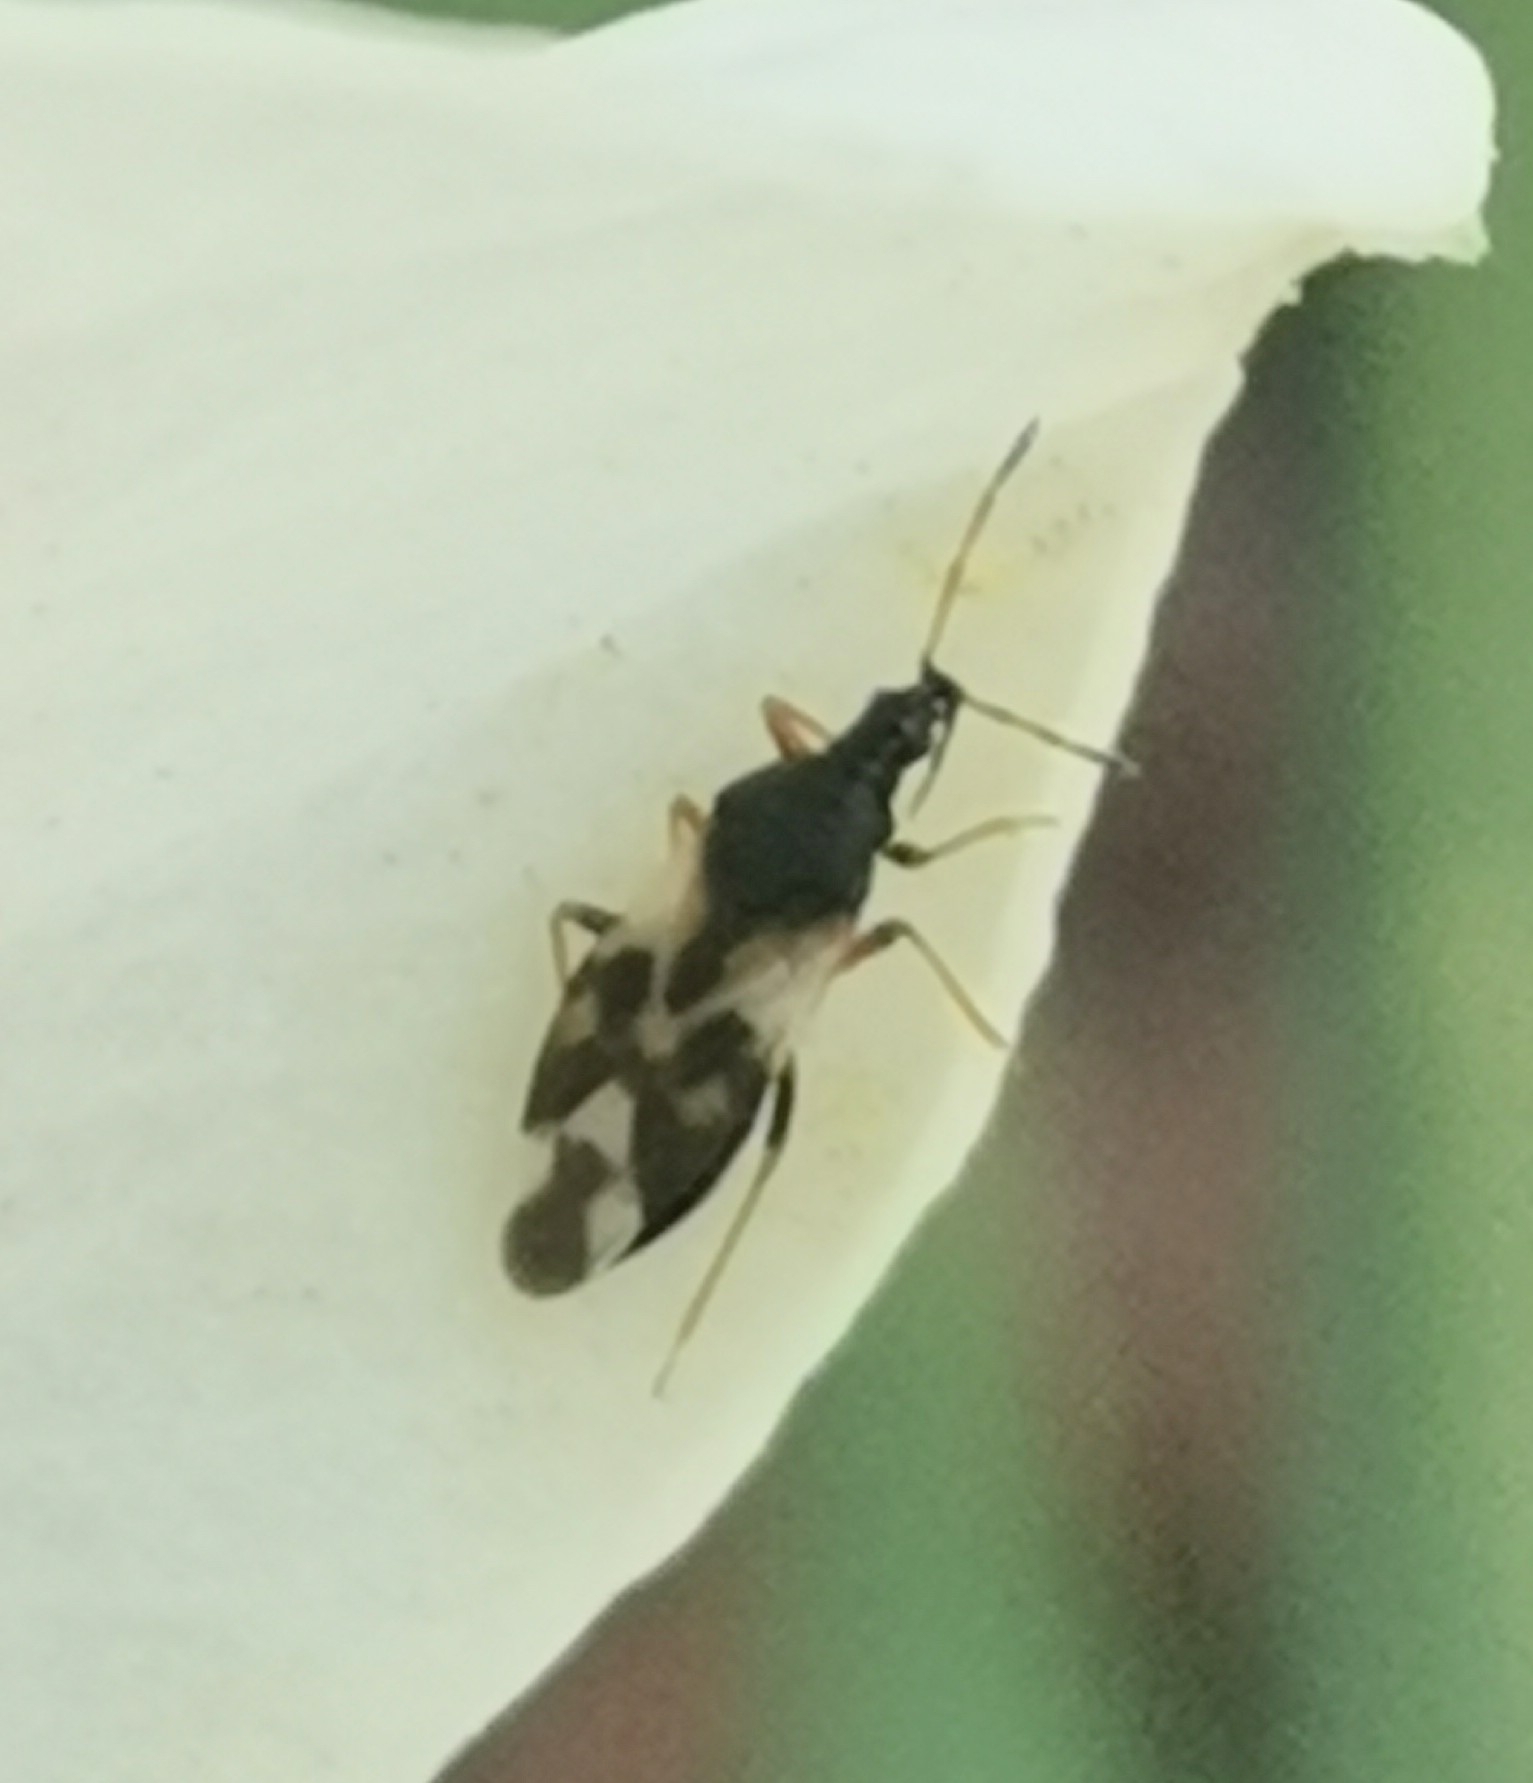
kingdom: Animalia
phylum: Arthropoda
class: Insecta
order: Hemiptera
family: Anthocoridae
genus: Anthocoris
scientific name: Anthocoris nemorum
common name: Minute pirate bug
